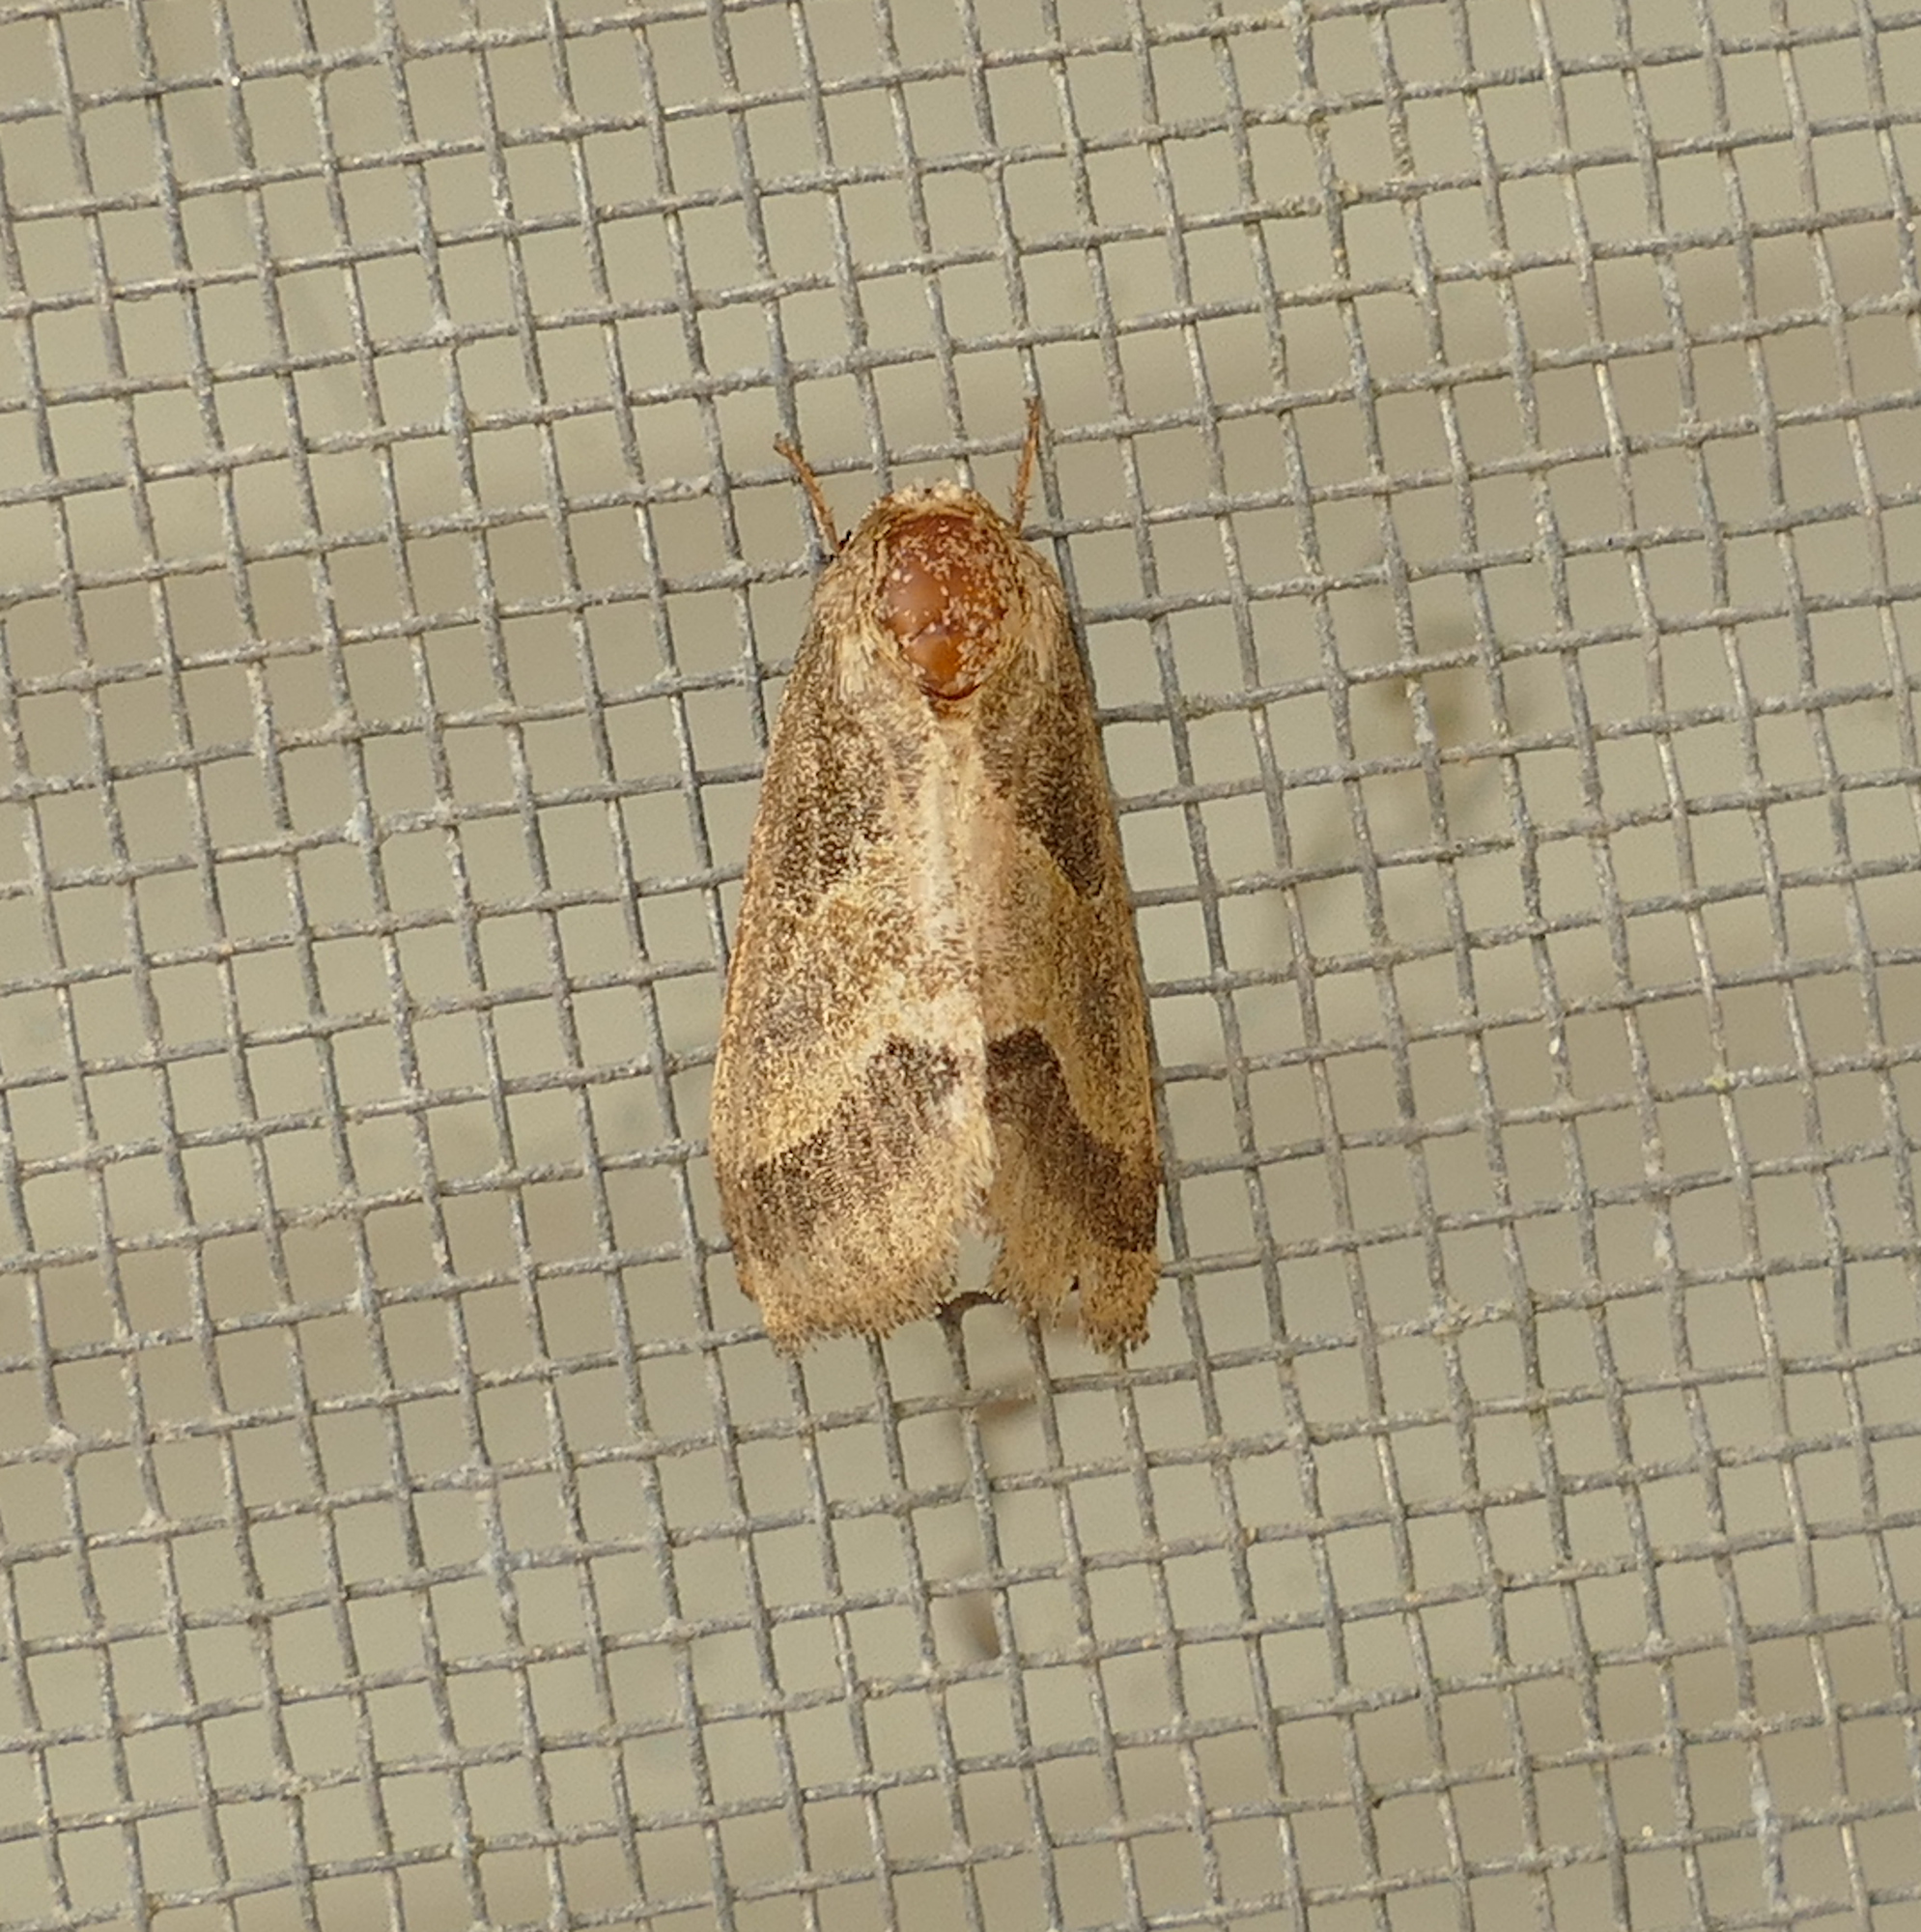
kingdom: Animalia
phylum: Arthropoda
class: Insecta
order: Lepidoptera
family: Noctuidae
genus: Schinia
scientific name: Schinia gracilenta
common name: Slender flower moth
